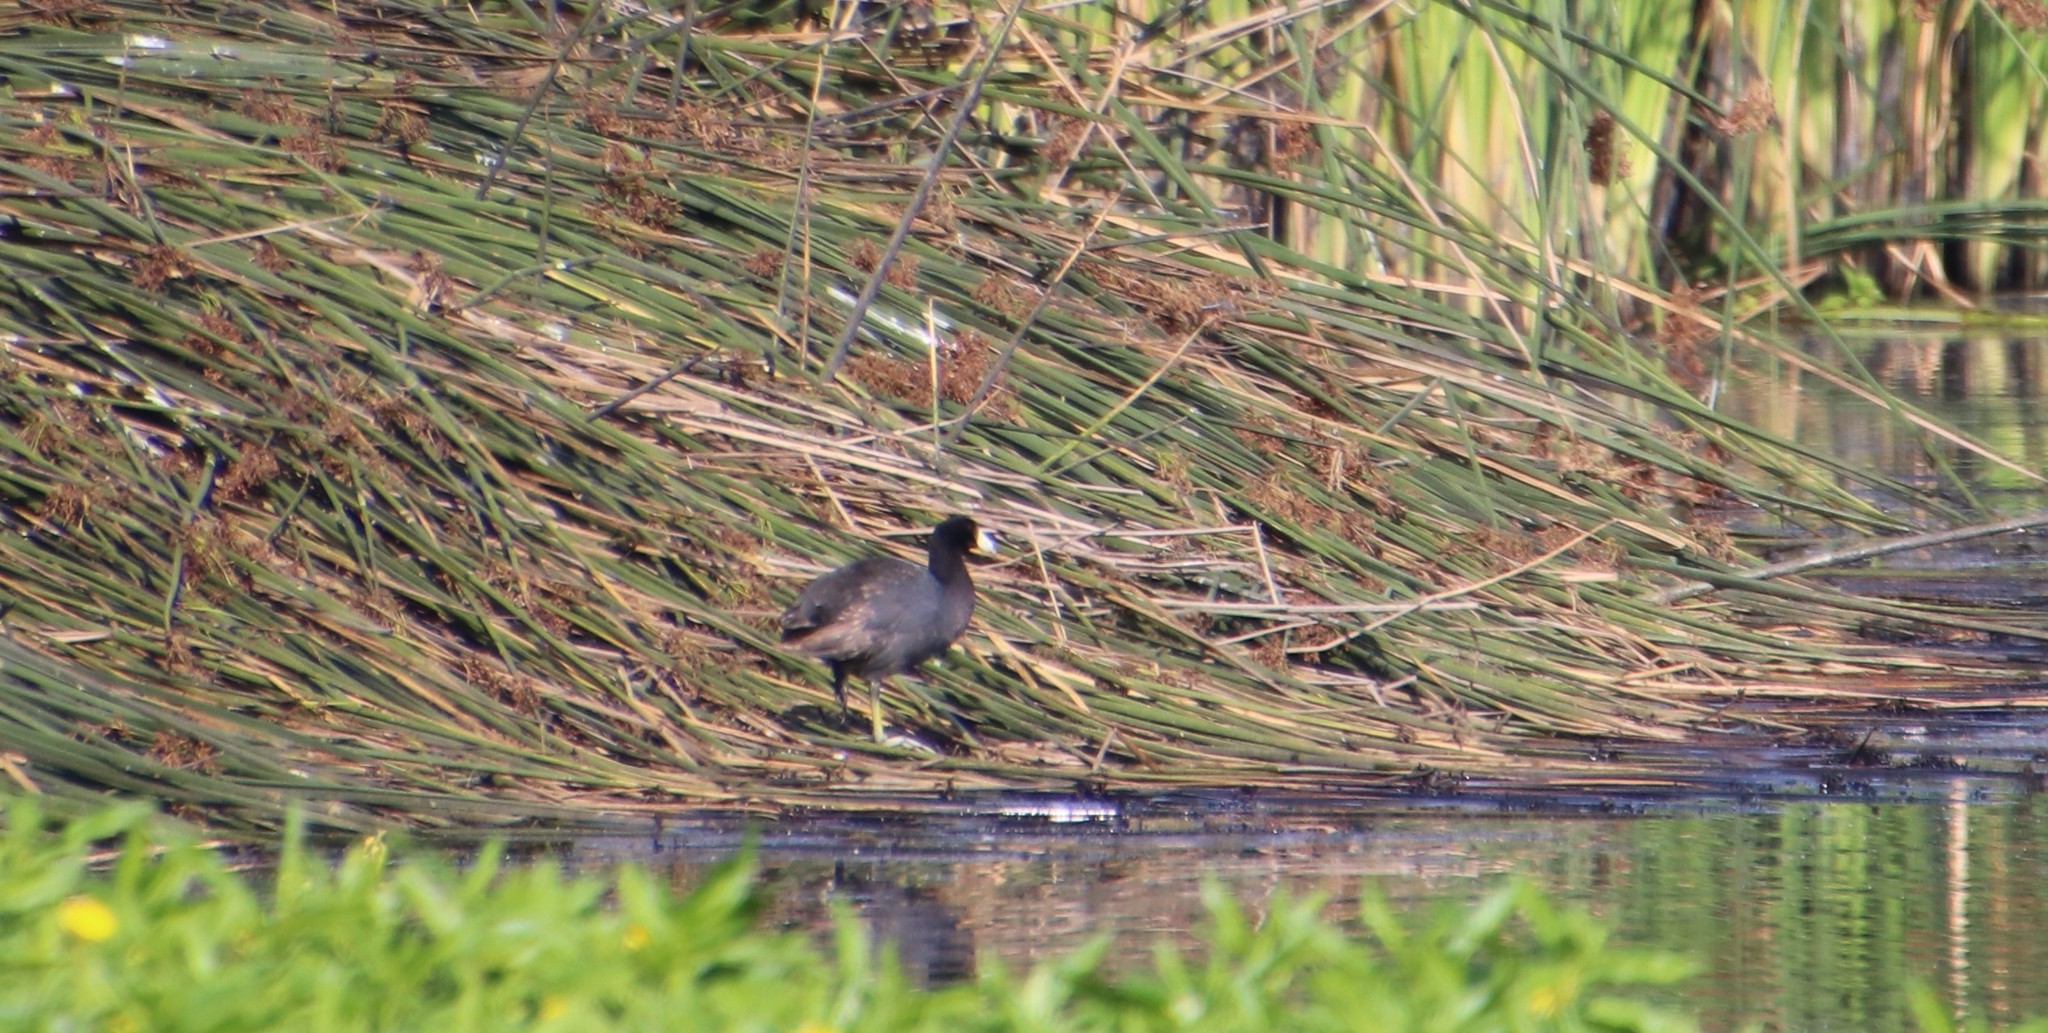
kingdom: Animalia
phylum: Chordata
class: Aves
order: Gruiformes
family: Rallidae
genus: Fulica
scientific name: Fulica americana
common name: American coot
